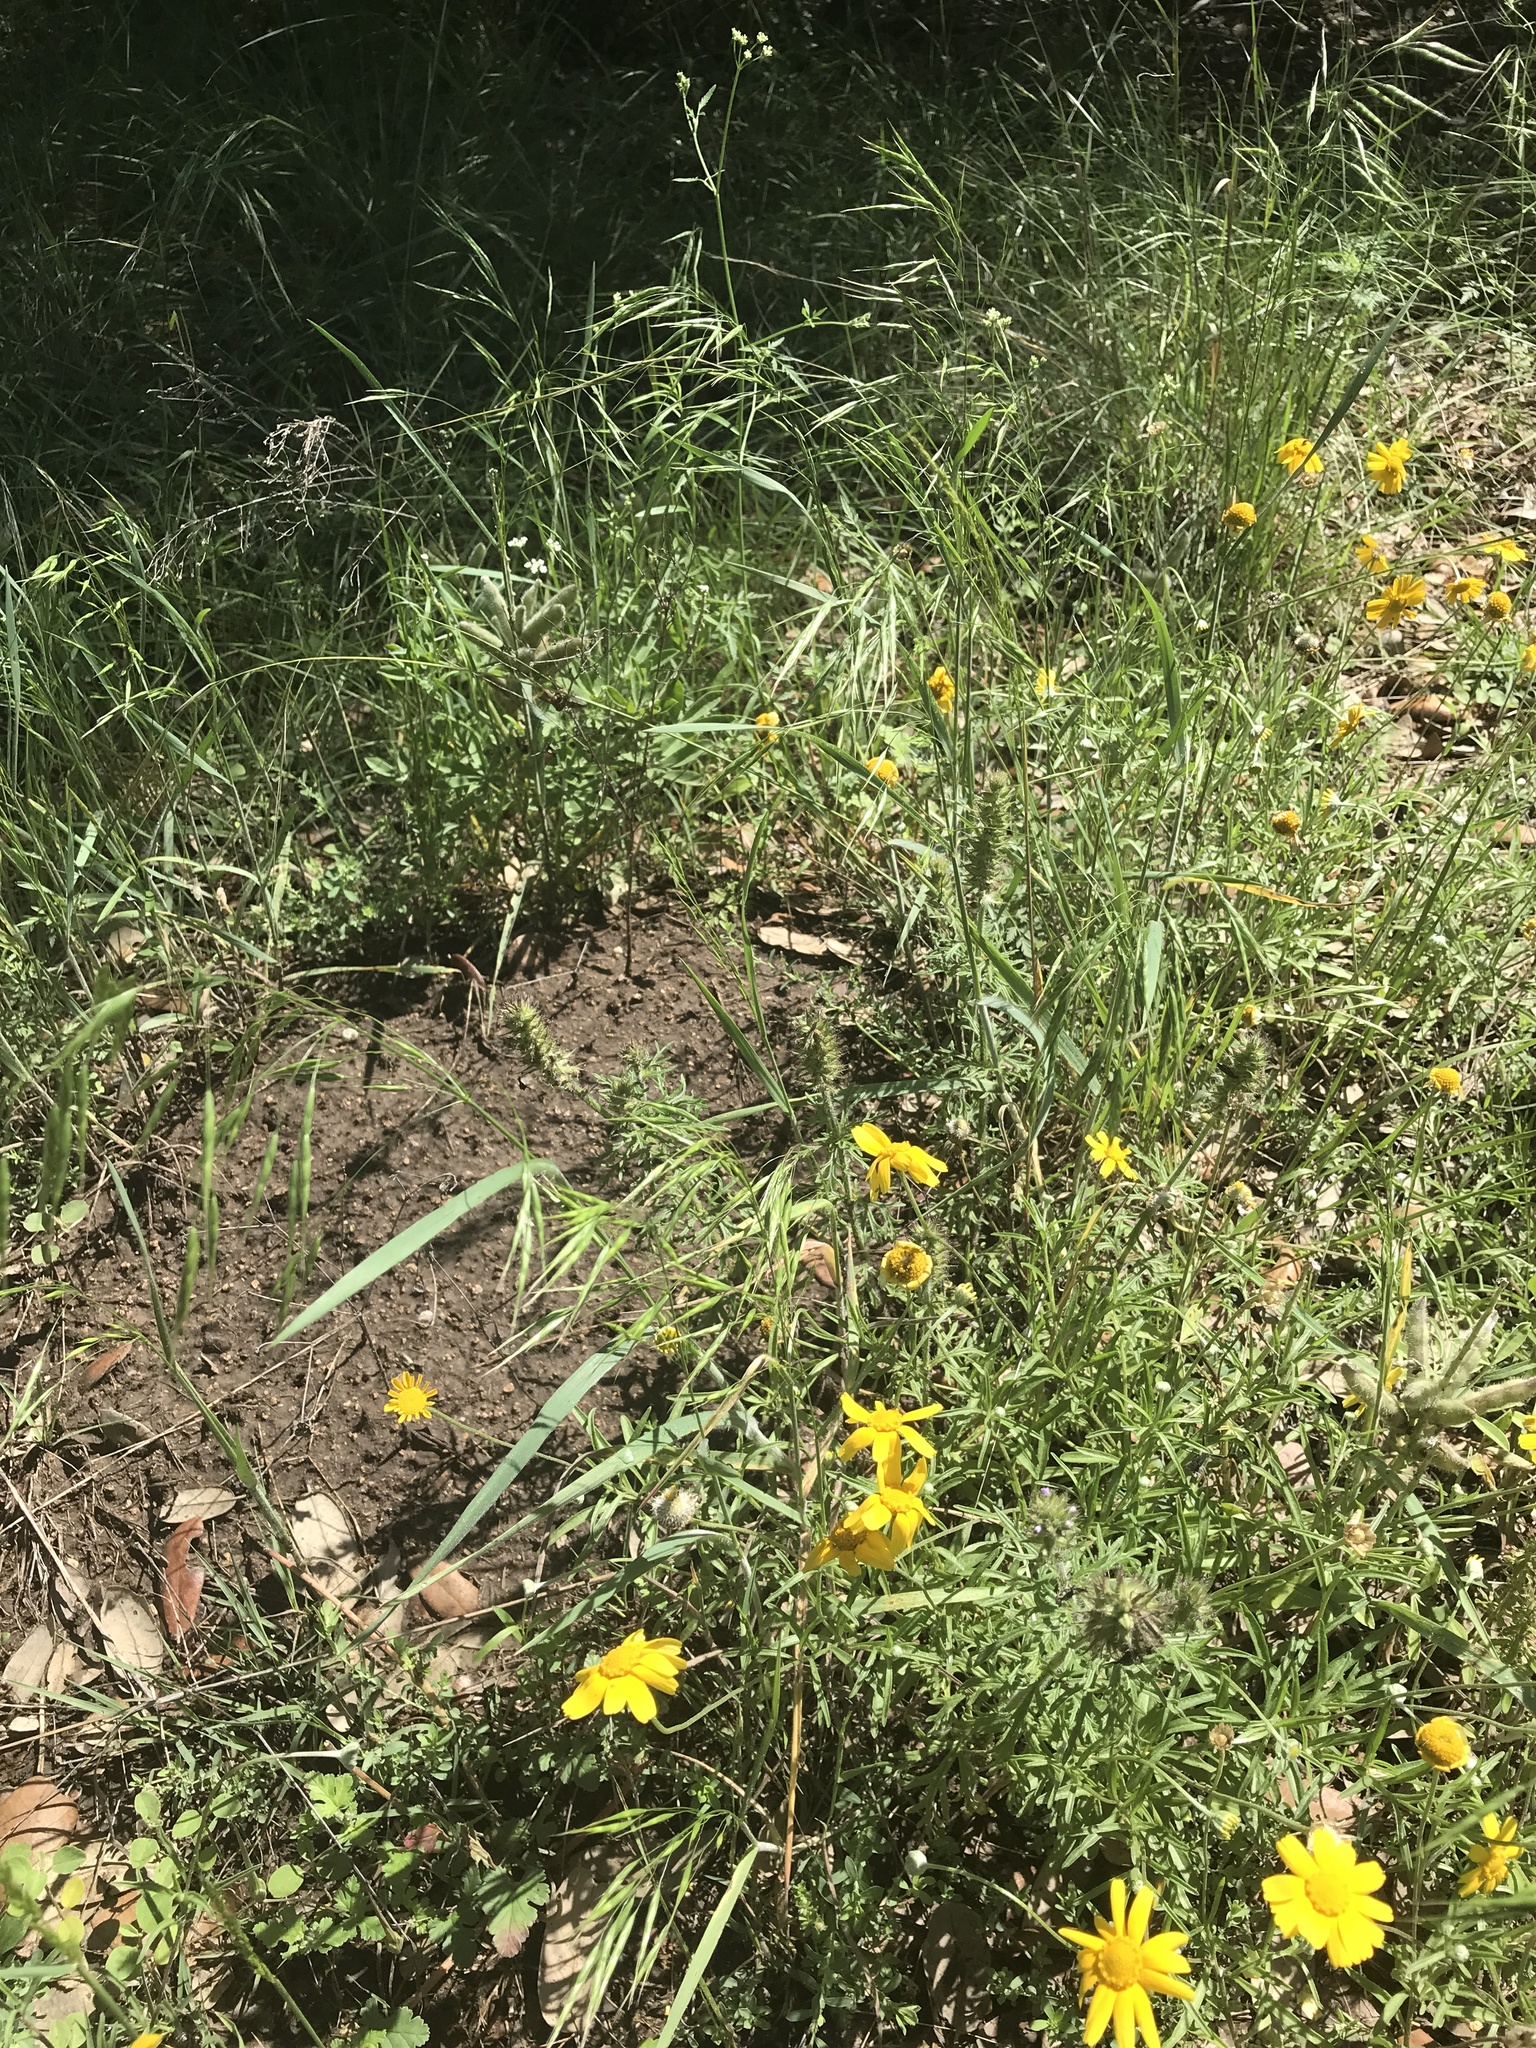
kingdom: Plantae
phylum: Tracheophyta
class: Liliopsida
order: Poales
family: Poaceae
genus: Bromus
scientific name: Bromus tectorum
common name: Cheatgrass
